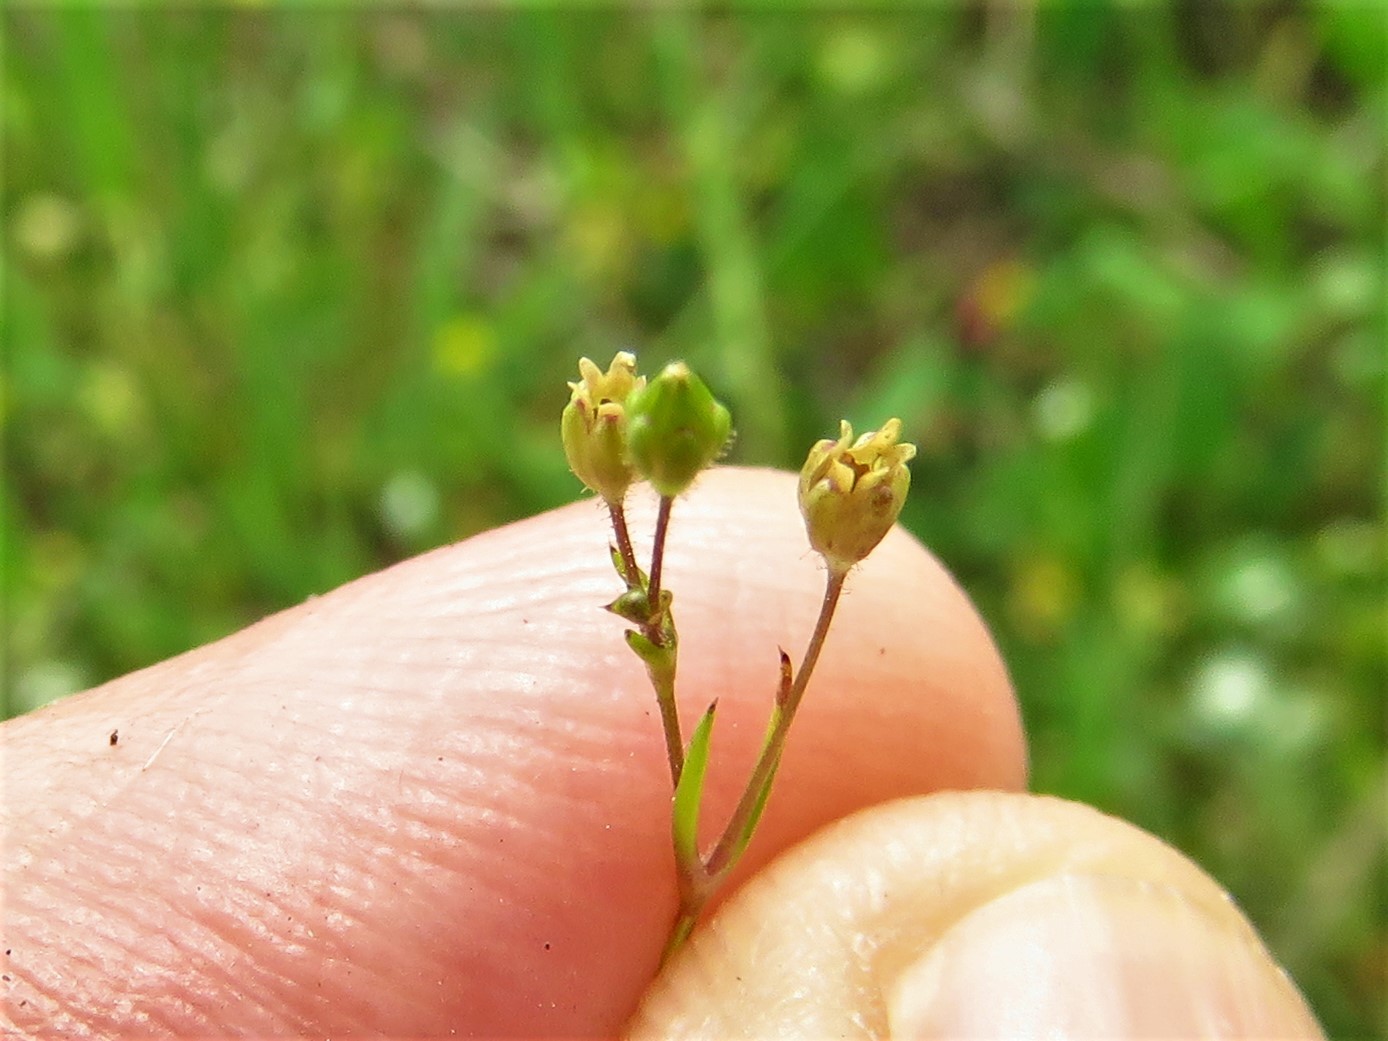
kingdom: Plantae
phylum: Tracheophyta
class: Magnoliopsida
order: Caryophyllales
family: Caryophyllaceae
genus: Sagina
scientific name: Sagina decumbens
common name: Decumbent pearlwort
